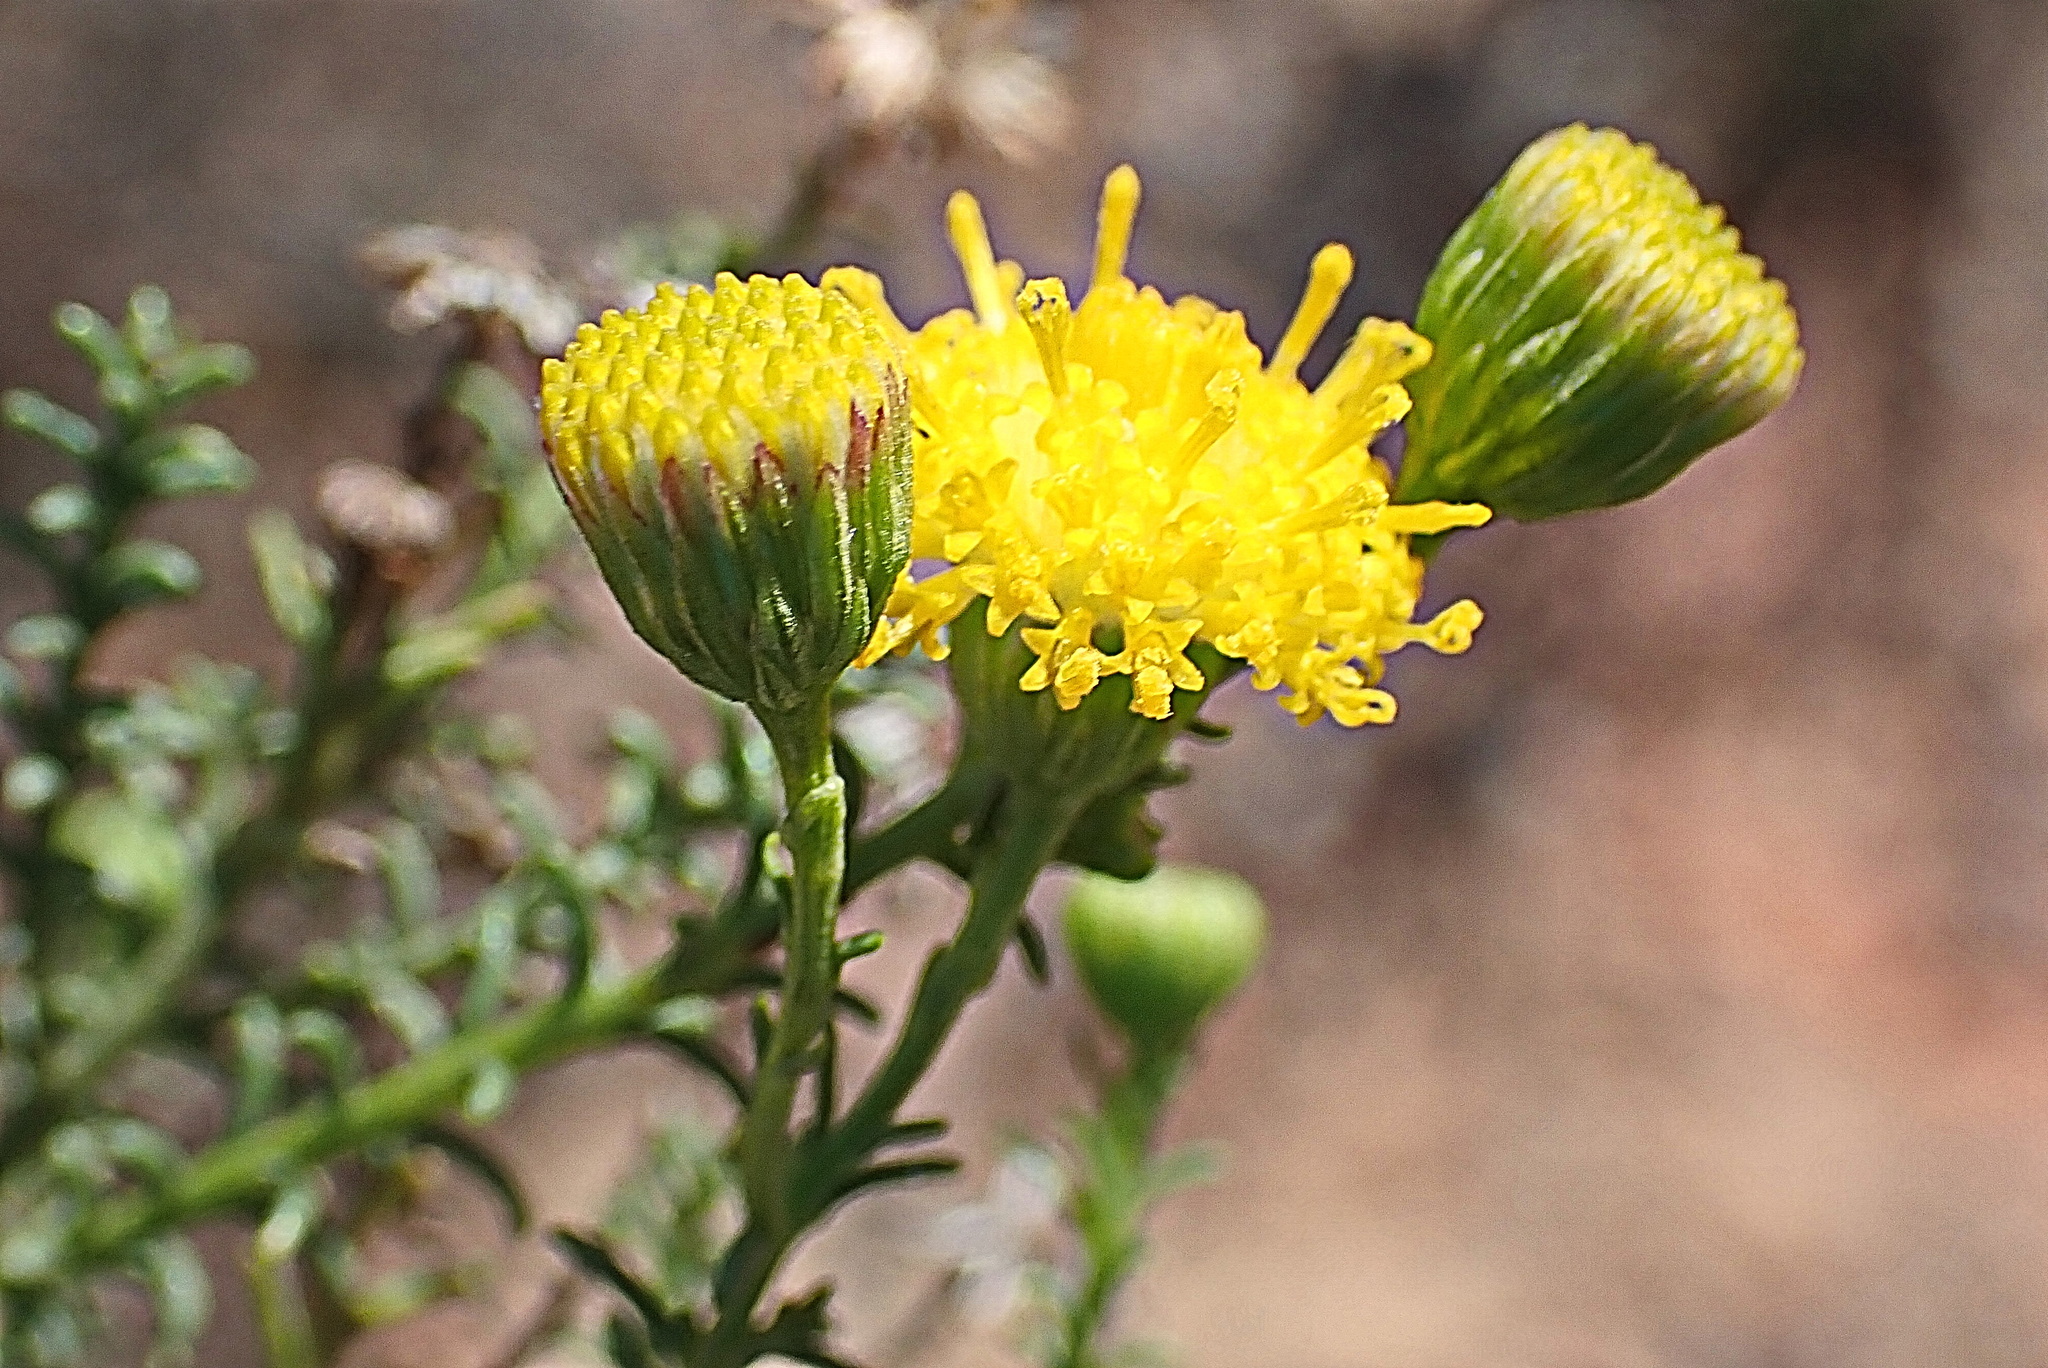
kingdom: Plantae
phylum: Tracheophyta
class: Magnoliopsida
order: Asterales
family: Asteraceae
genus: Chrysocoma
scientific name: Chrysocoma ciliata
